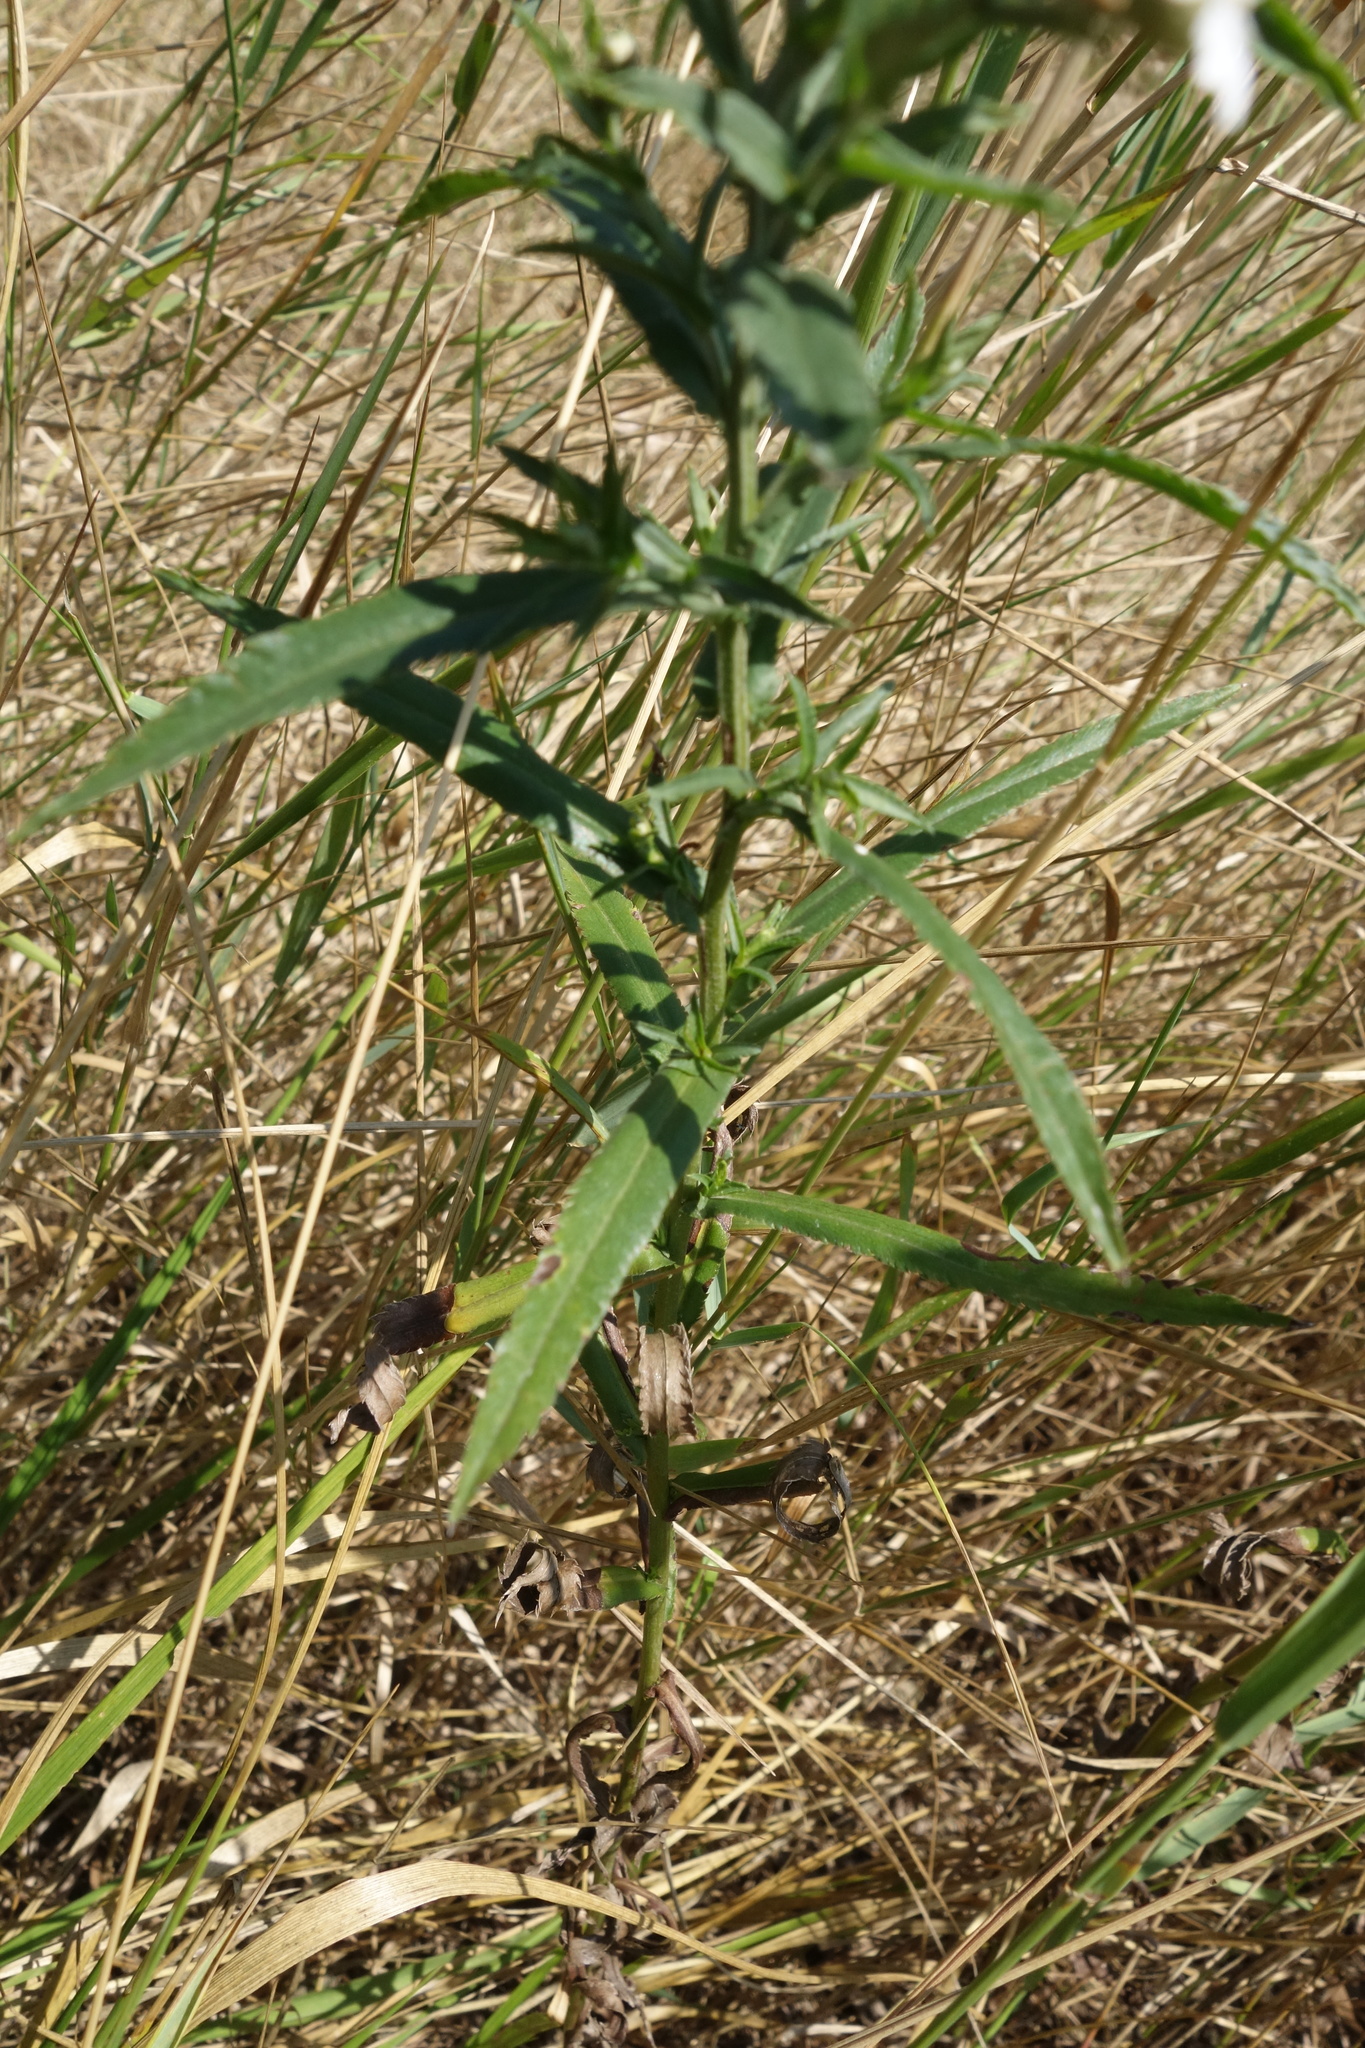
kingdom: Plantae
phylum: Tracheophyta
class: Magnoliopsida
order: Asterales
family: Asteraceae
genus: Achillea
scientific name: Achillea ptarmica
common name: Sneezeweed
